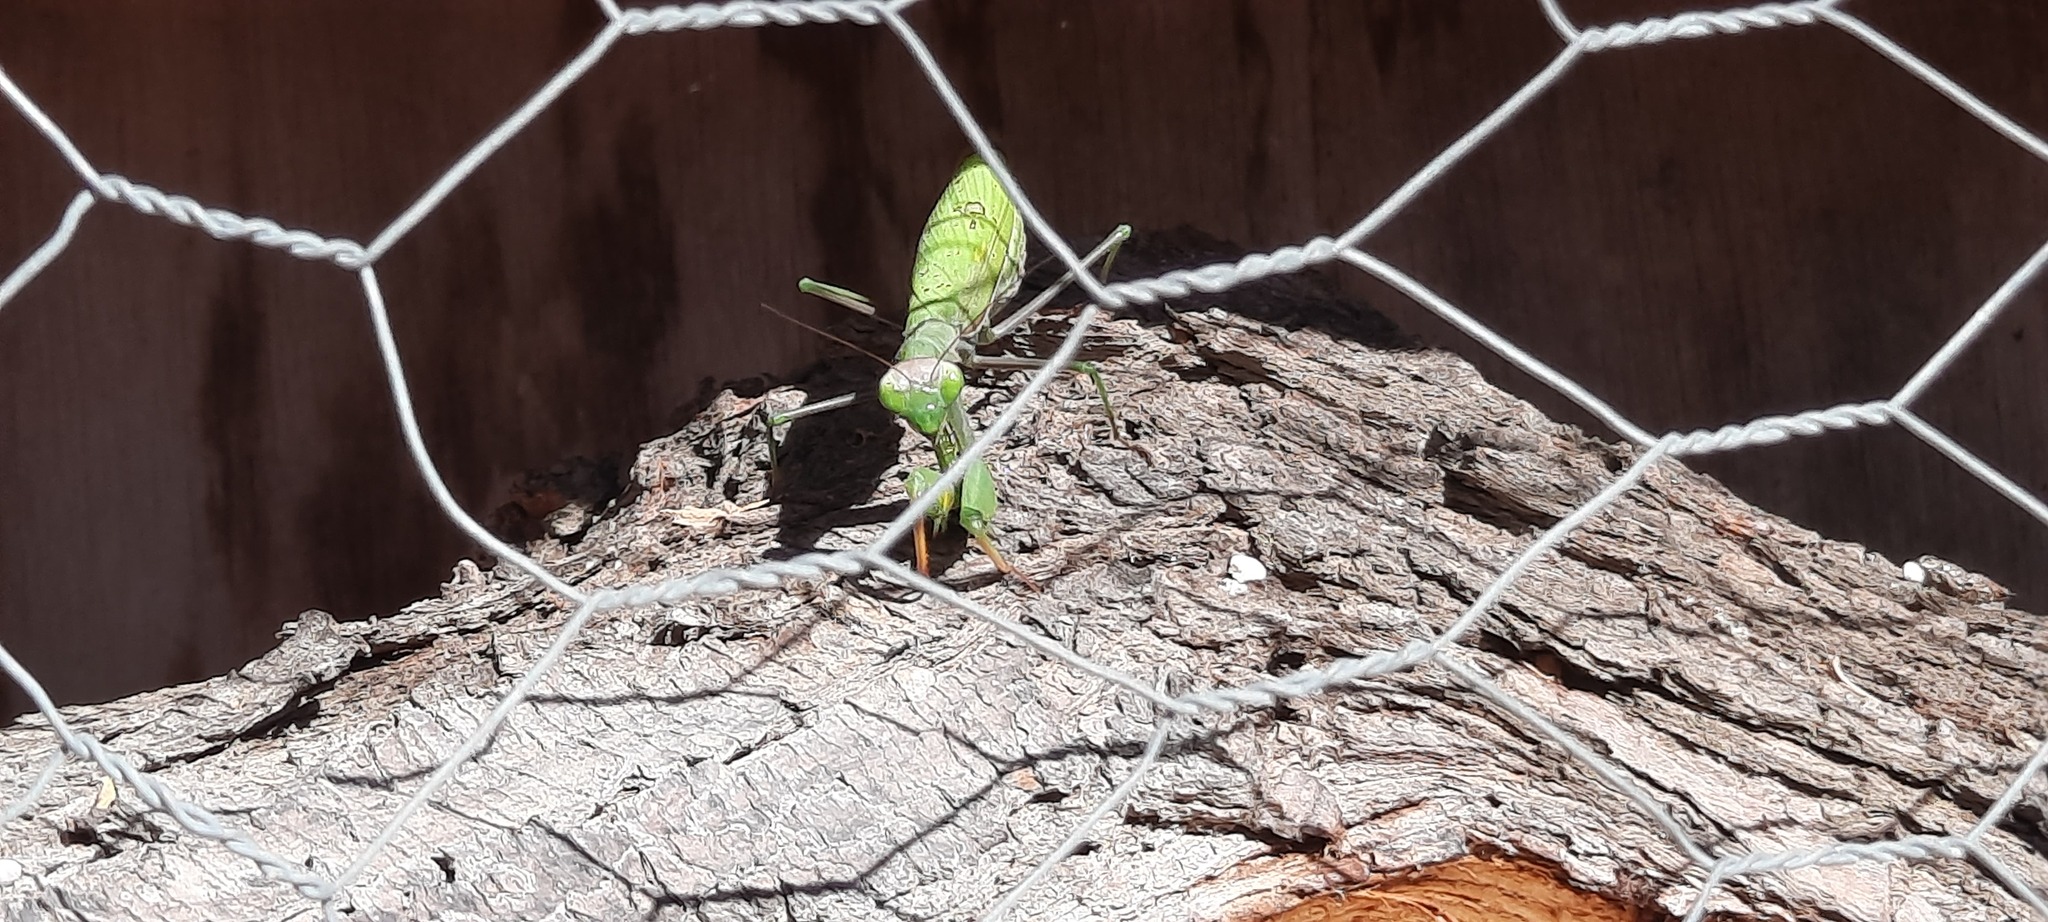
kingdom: Animalia
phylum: Arthropoda
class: Insecta
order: Mantodea
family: Mantidae
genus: Mantis
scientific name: Mantis religiosa
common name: Praying mantis
